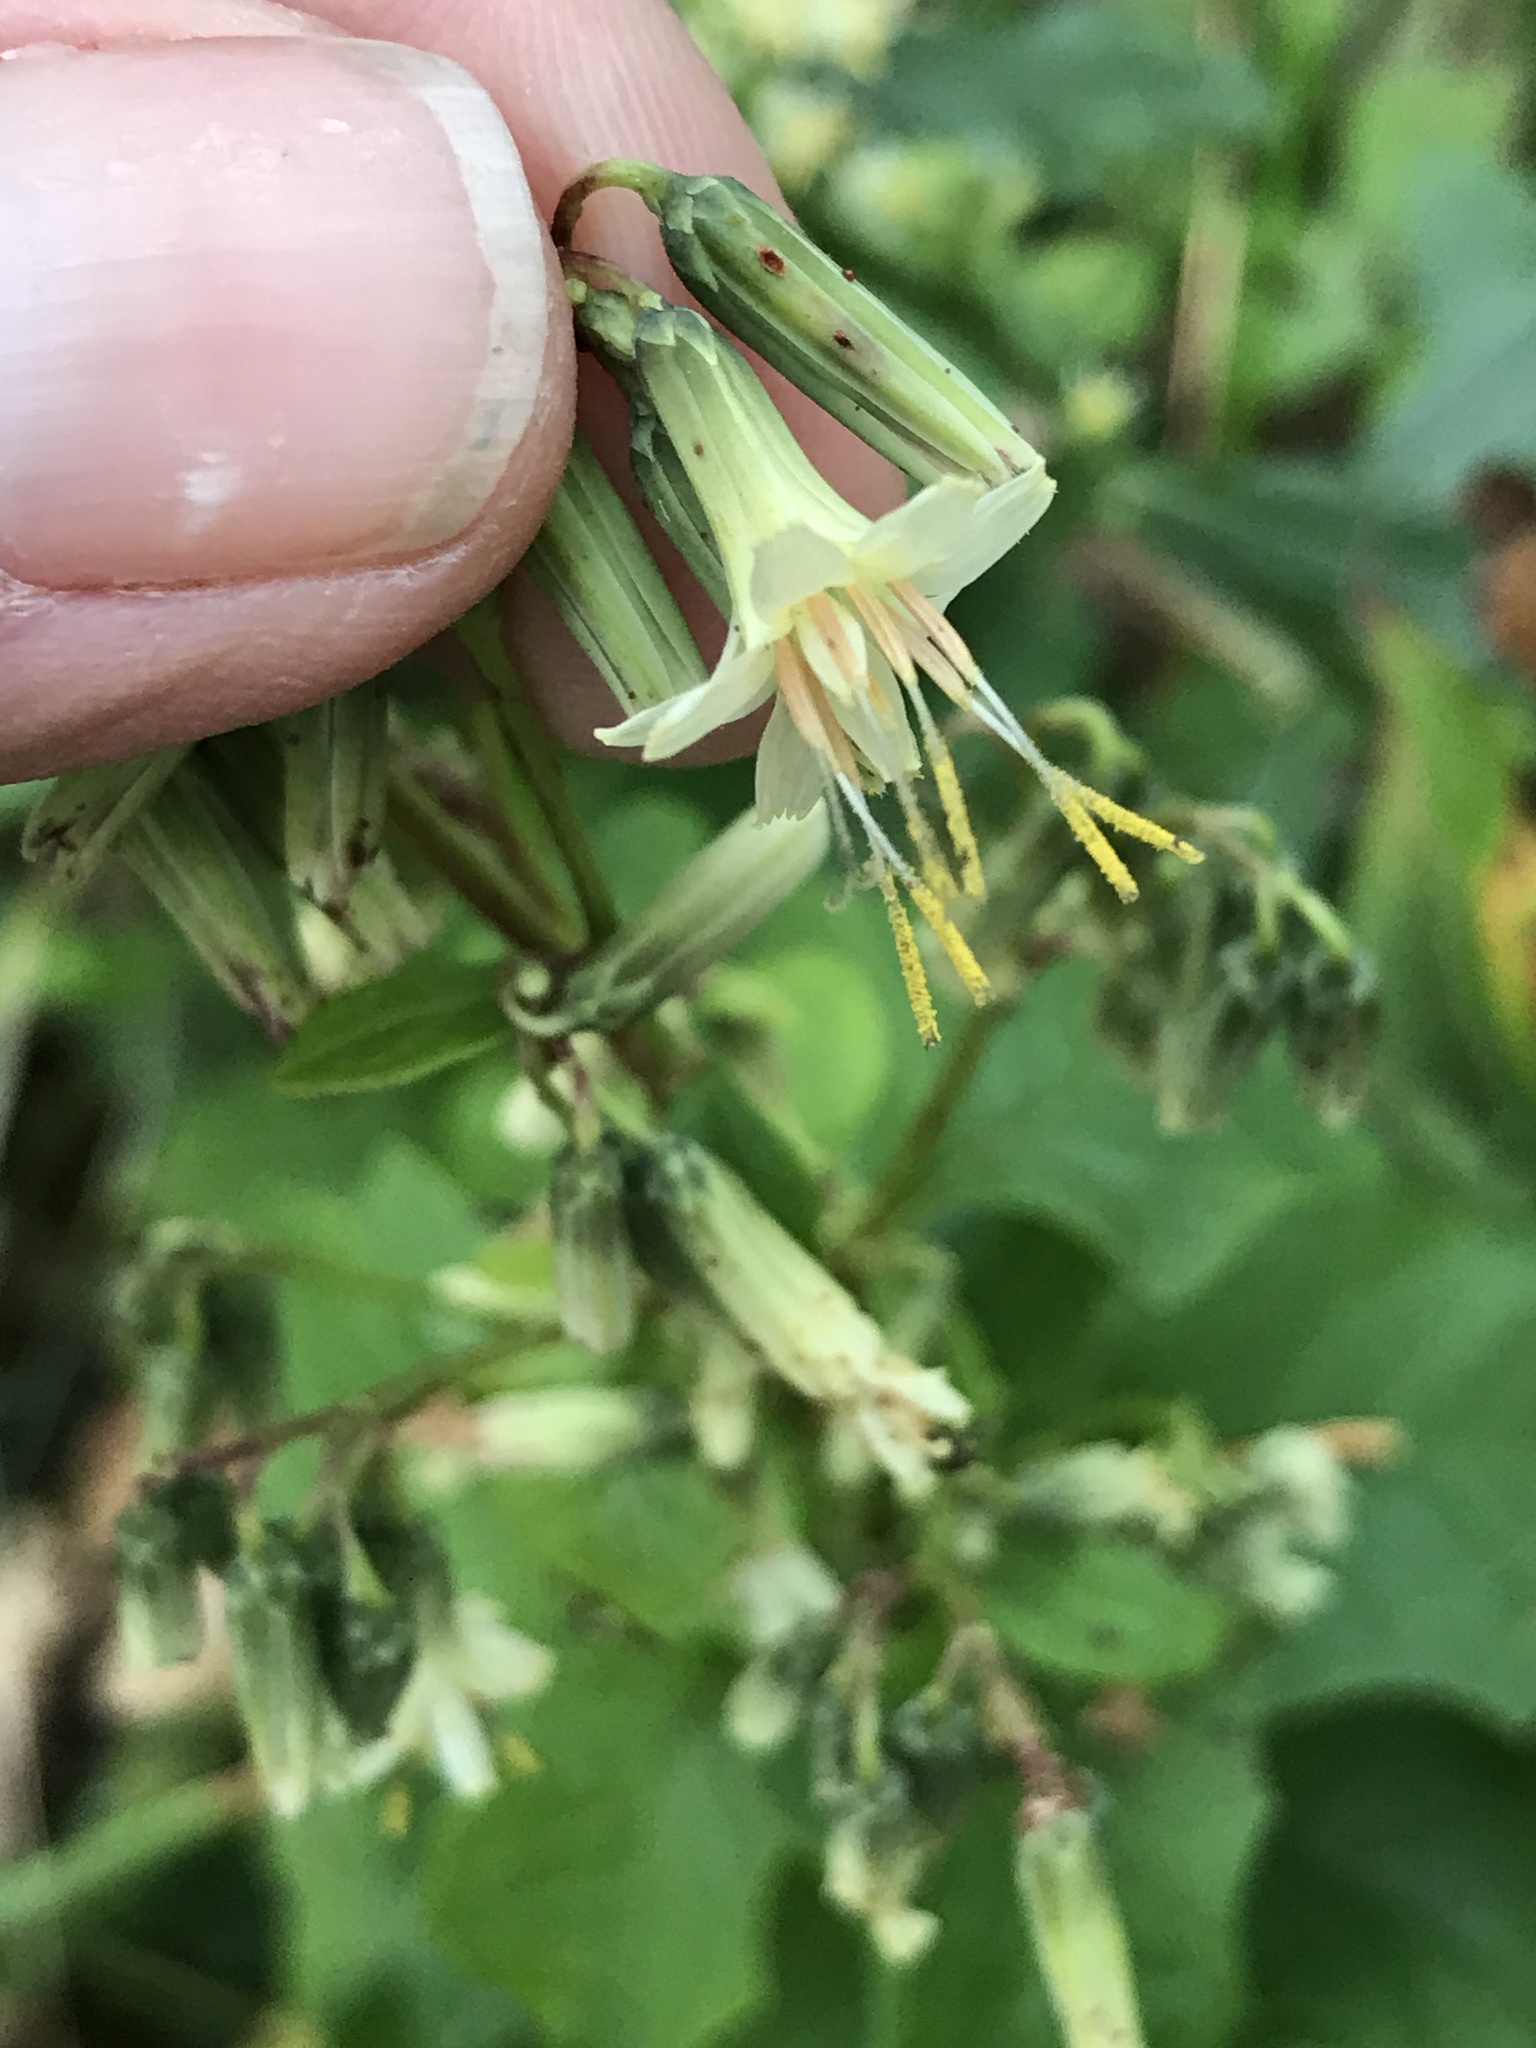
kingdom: Plantae
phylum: Tracheophyta
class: Magnoliopsida
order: Asterales
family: Asteraceae
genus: Nabalus
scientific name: Nabalus trifoliolatus
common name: Gall-of-the-earth
